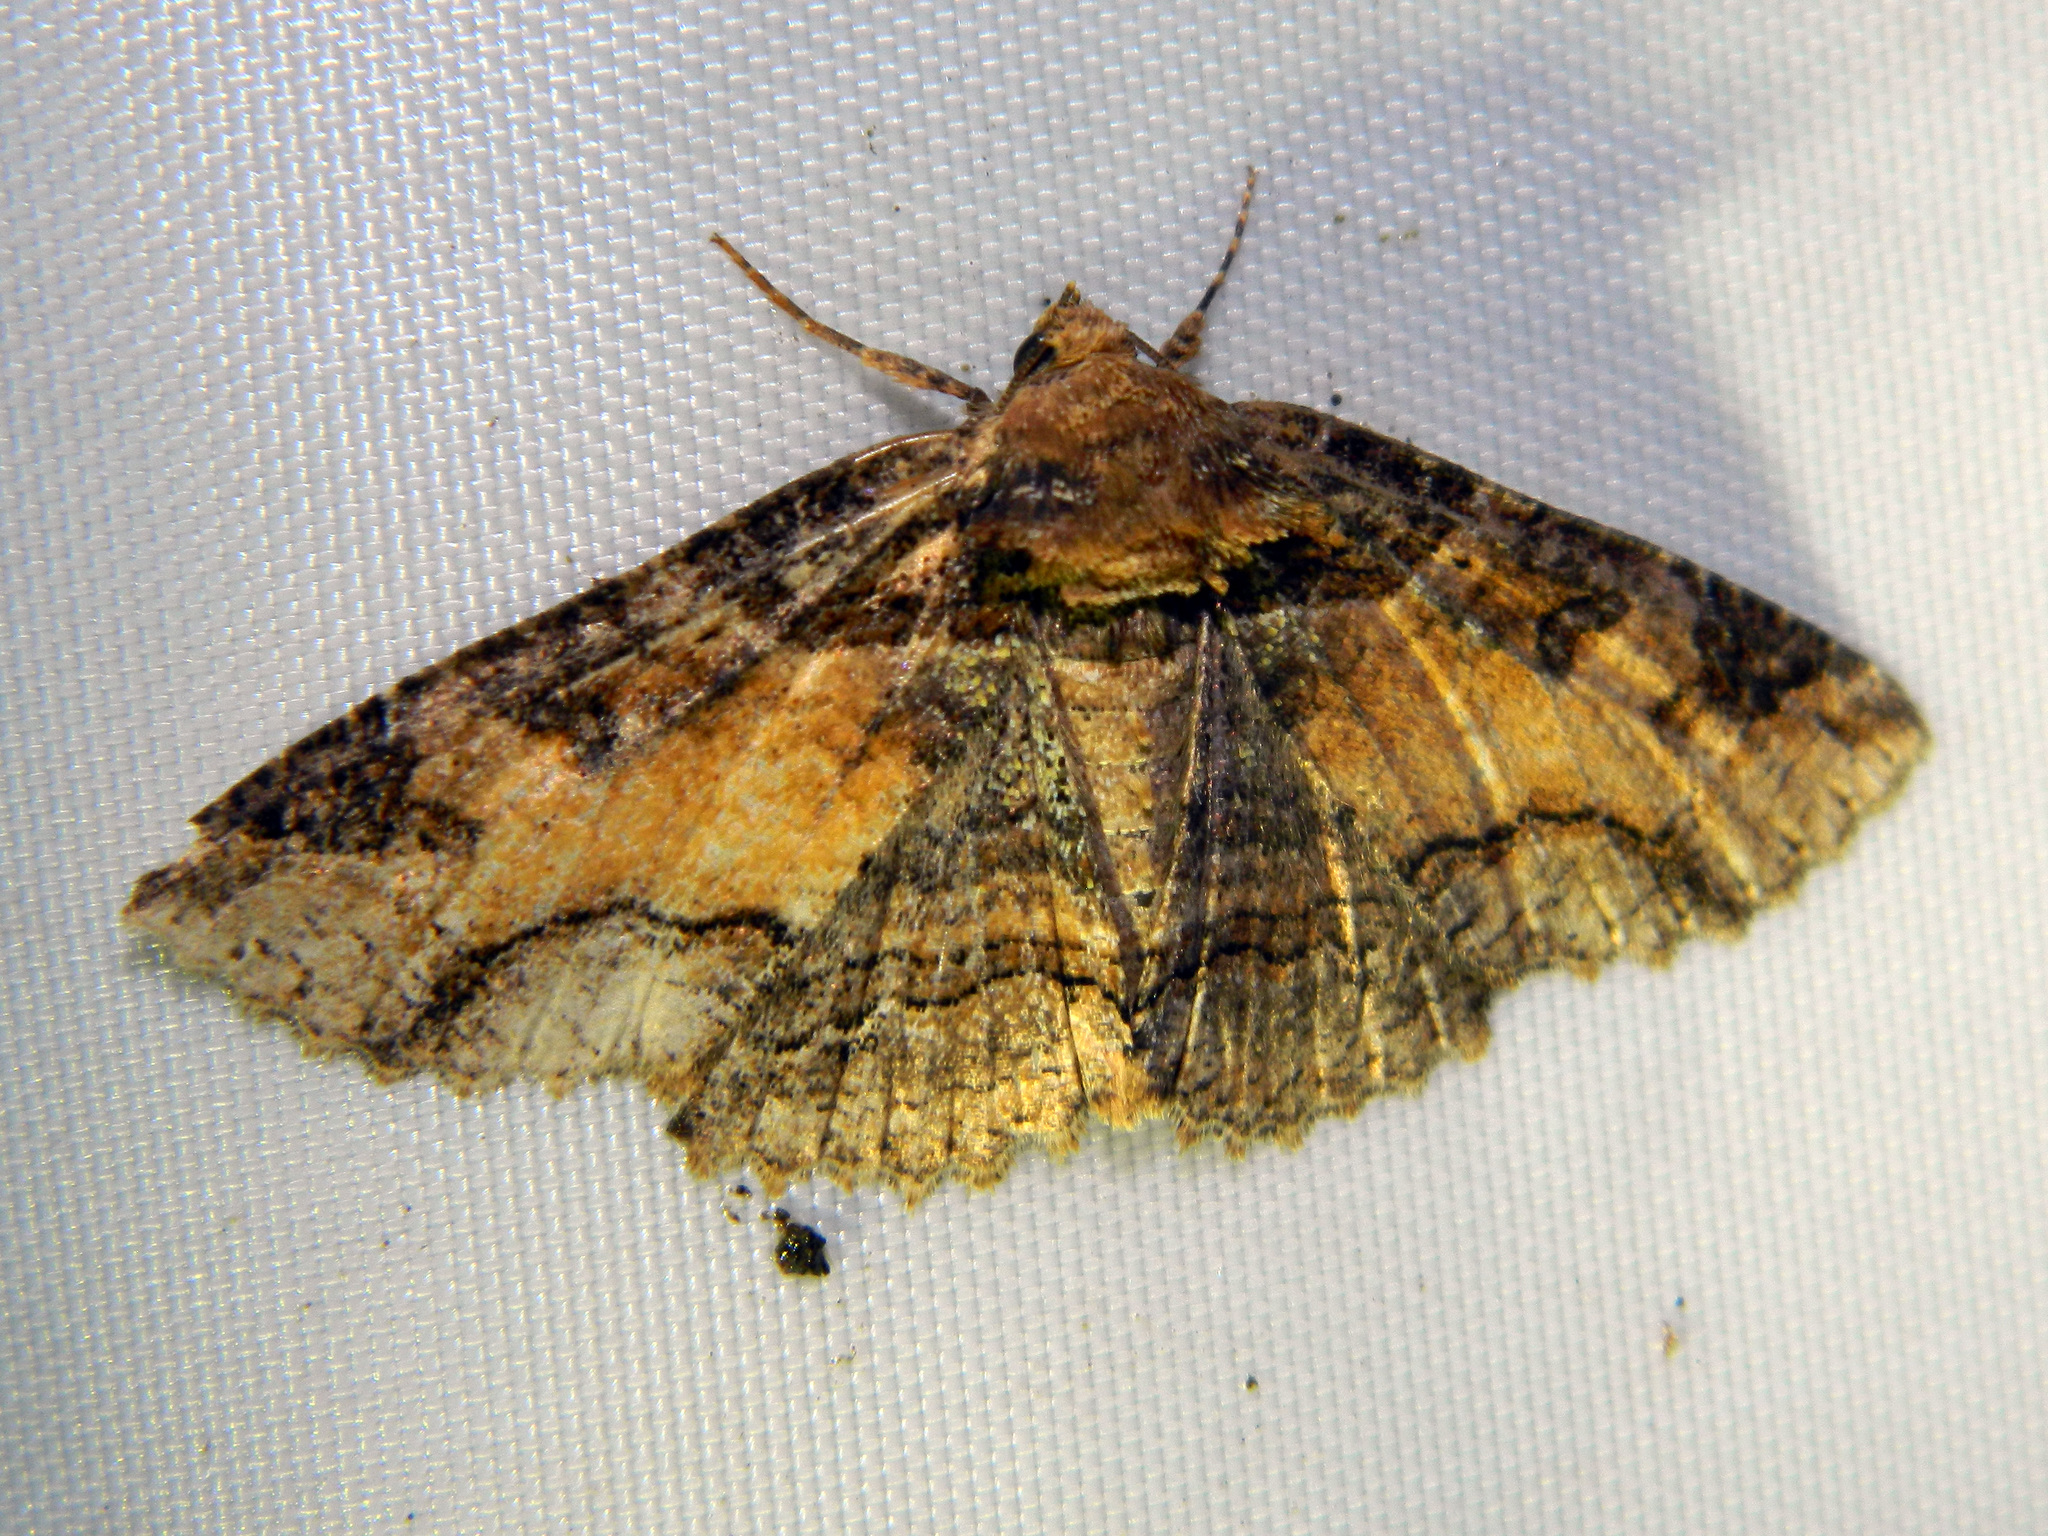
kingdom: Animalia
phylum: Arthropoda
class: Insecta
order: Lepidoptera
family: Erebidae
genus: Zale
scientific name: Zale minerea
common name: Colorful zale moth
